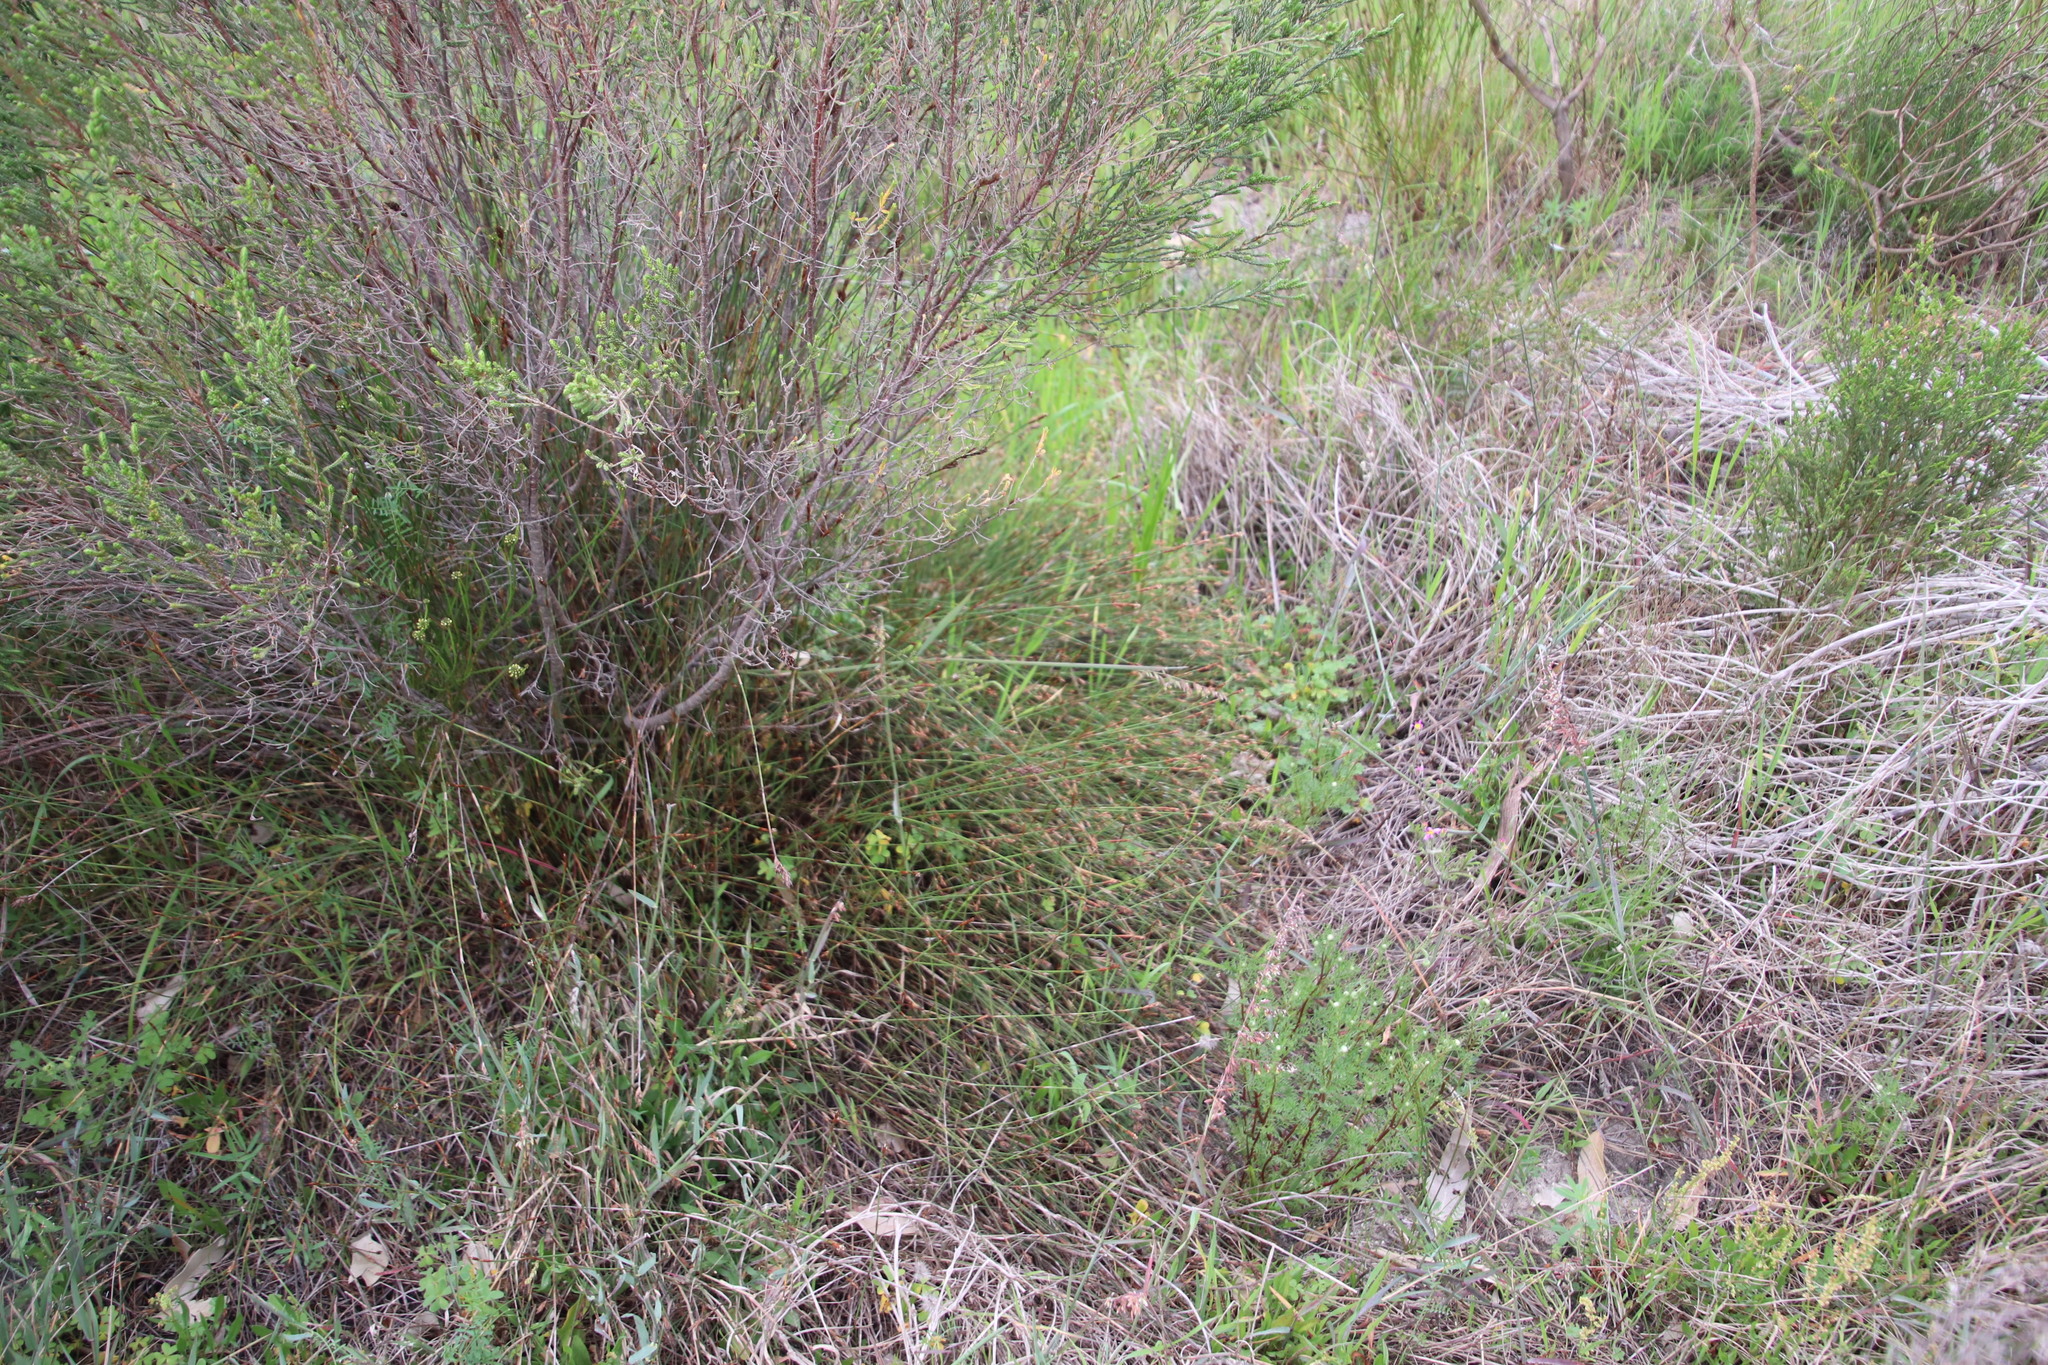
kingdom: Plantae
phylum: Tracheophyta
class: Liliopsida
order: Poales
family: Restionaceae
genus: Restio
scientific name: Restio capensis
